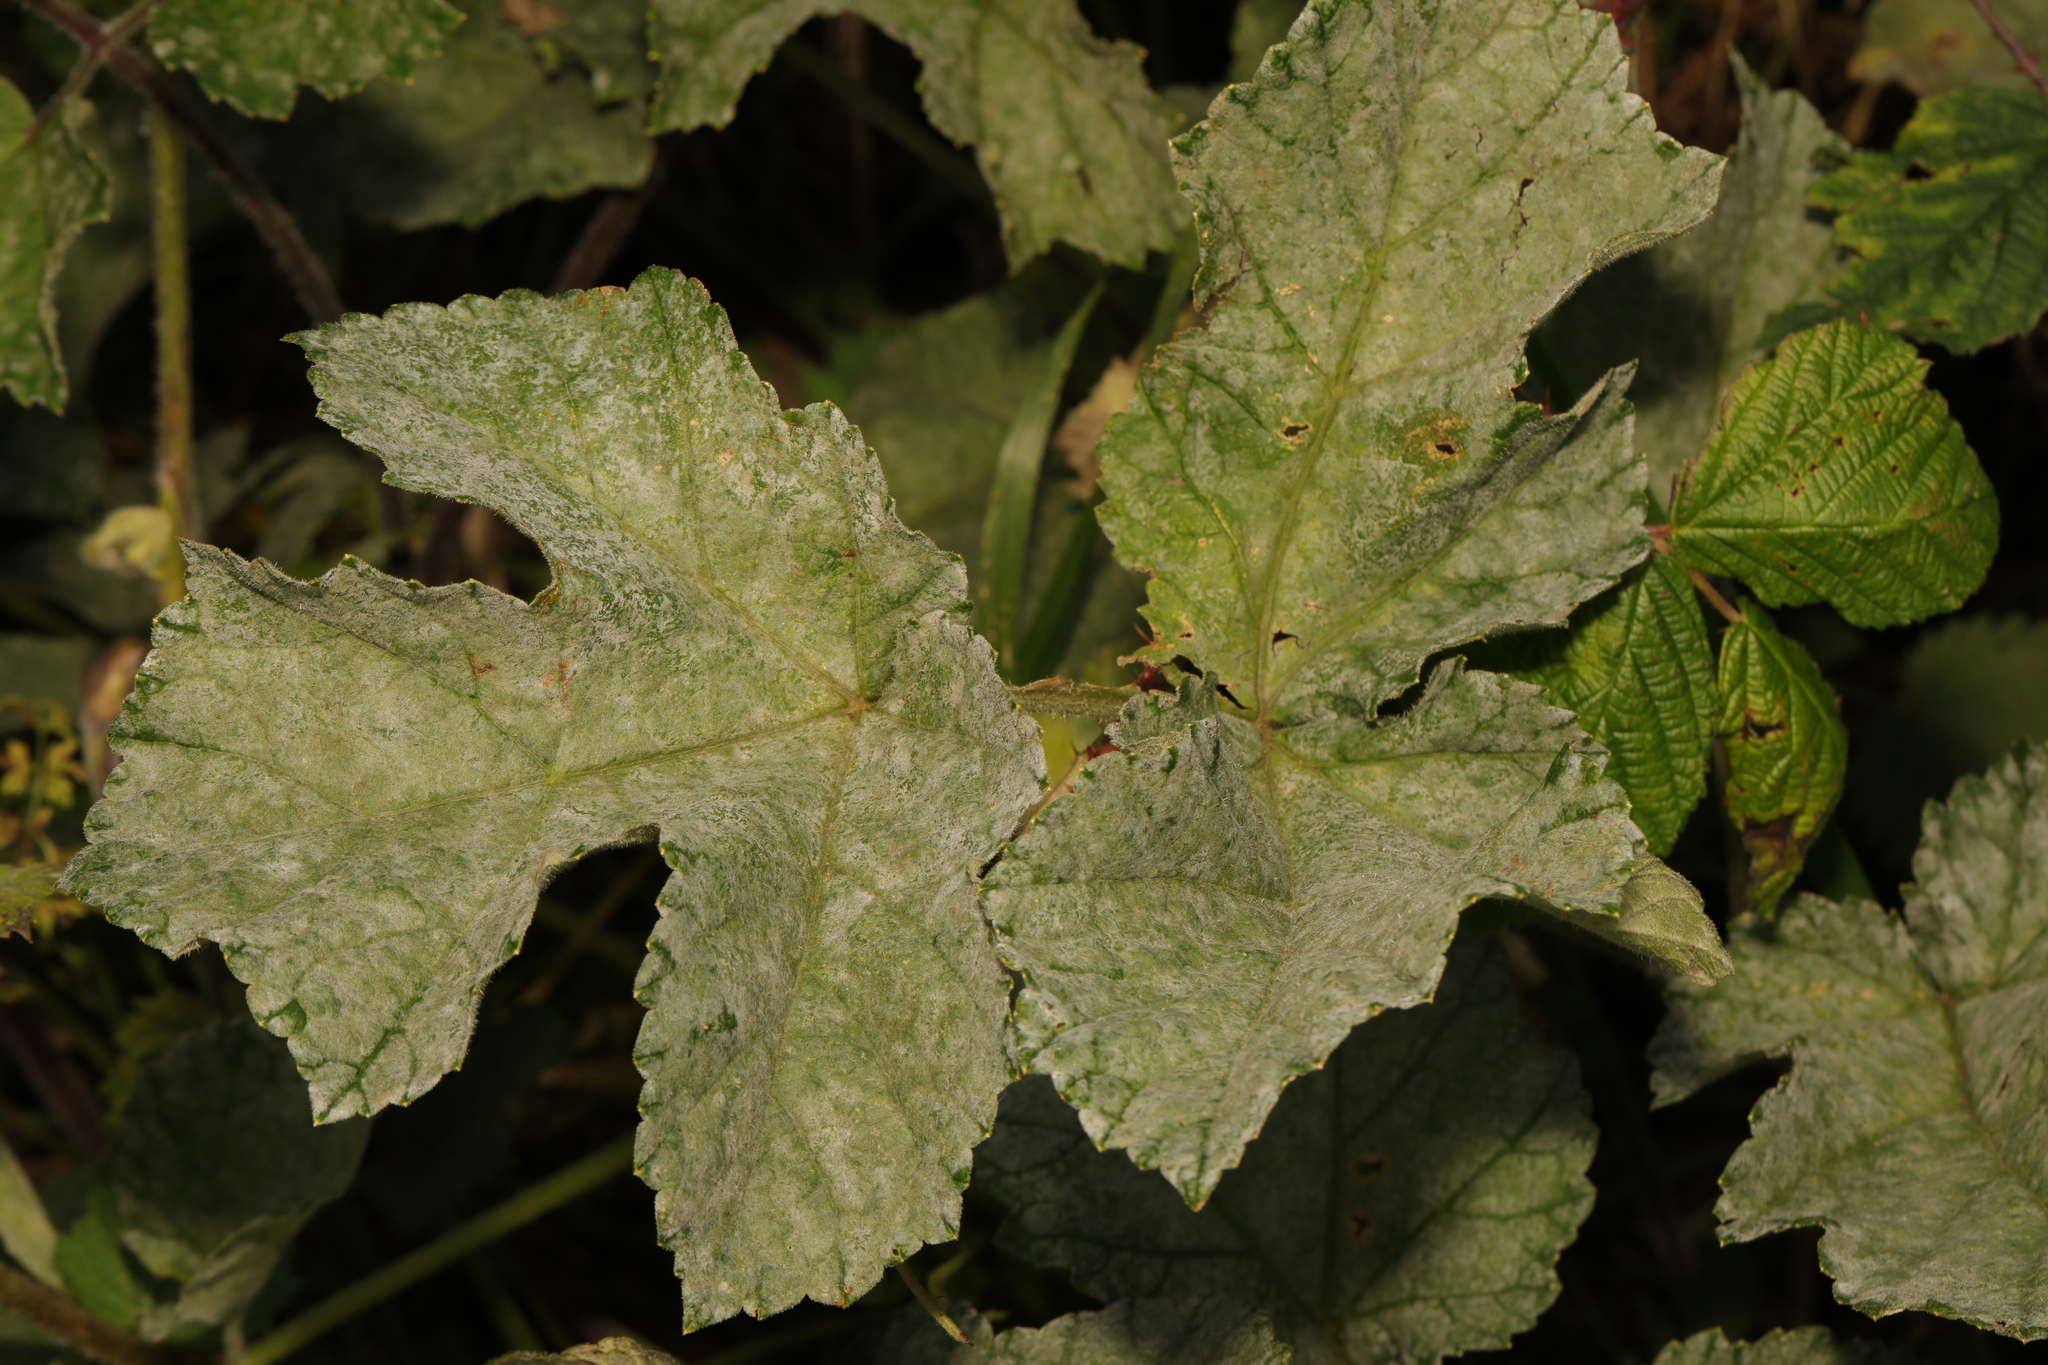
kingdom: Fungi
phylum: Ascomycota
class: Leotiomycetes
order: Helotiales
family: Erysiphaceae
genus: Erysiphe
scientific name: Erysiphe heraclei
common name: Umbellifer mildew
